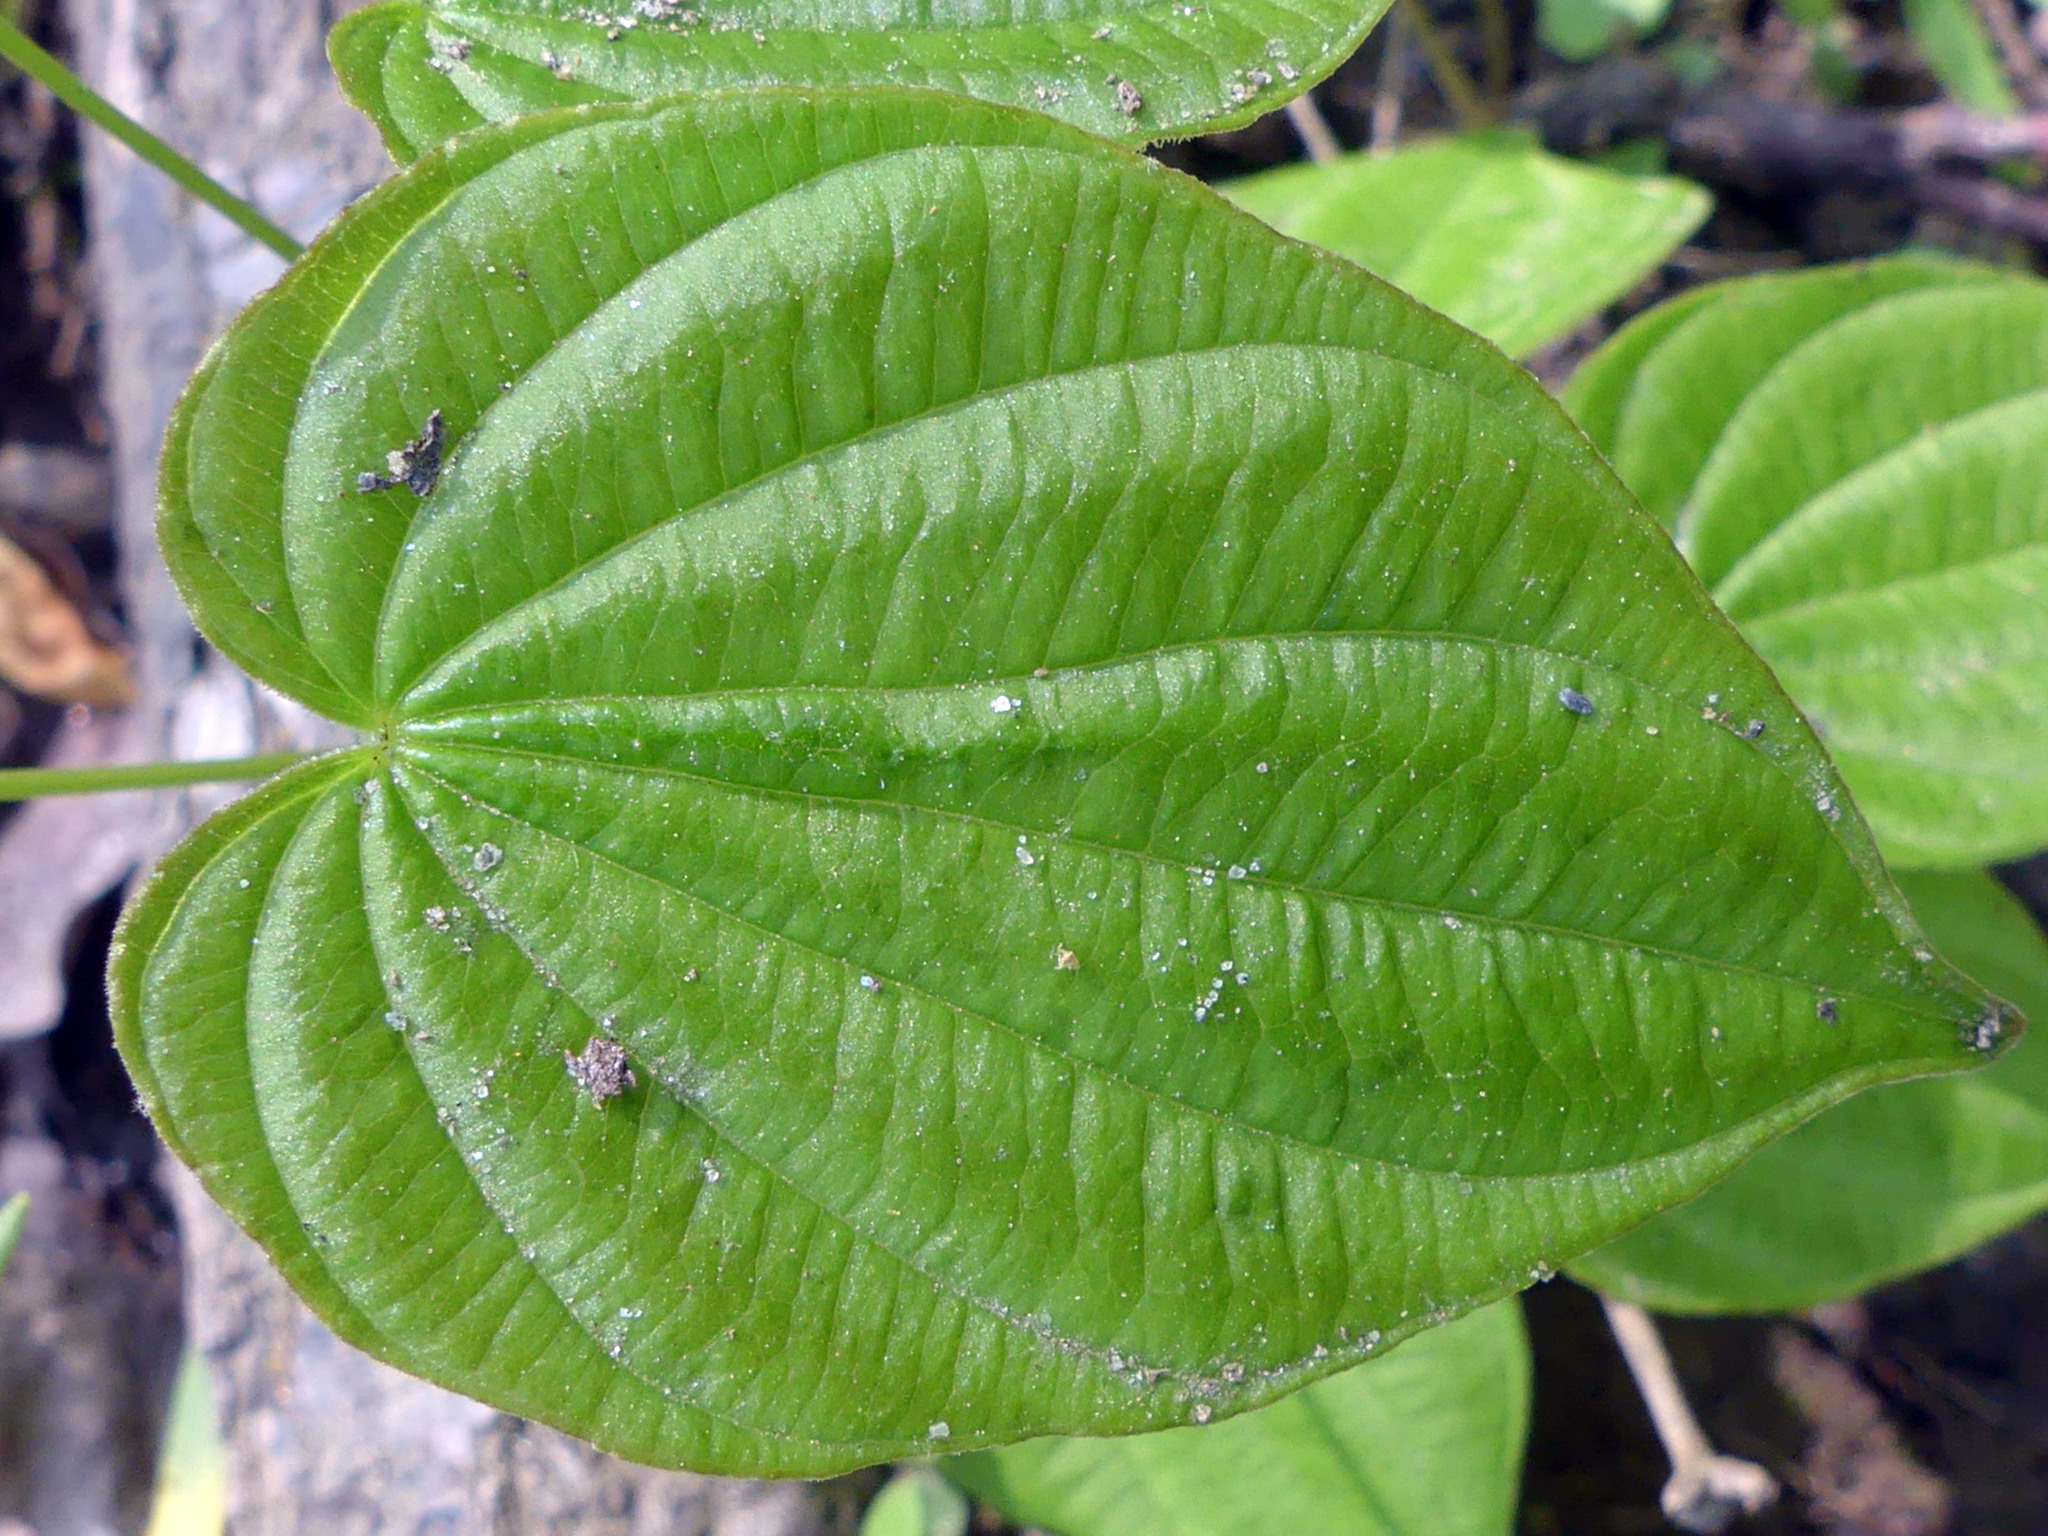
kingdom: Plantae
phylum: Tracheophyta
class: Liliopsida
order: Dioscoreales
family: Dioscoreaceae
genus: Dioscorea
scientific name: Dioscorea villosa
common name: Wild yam
